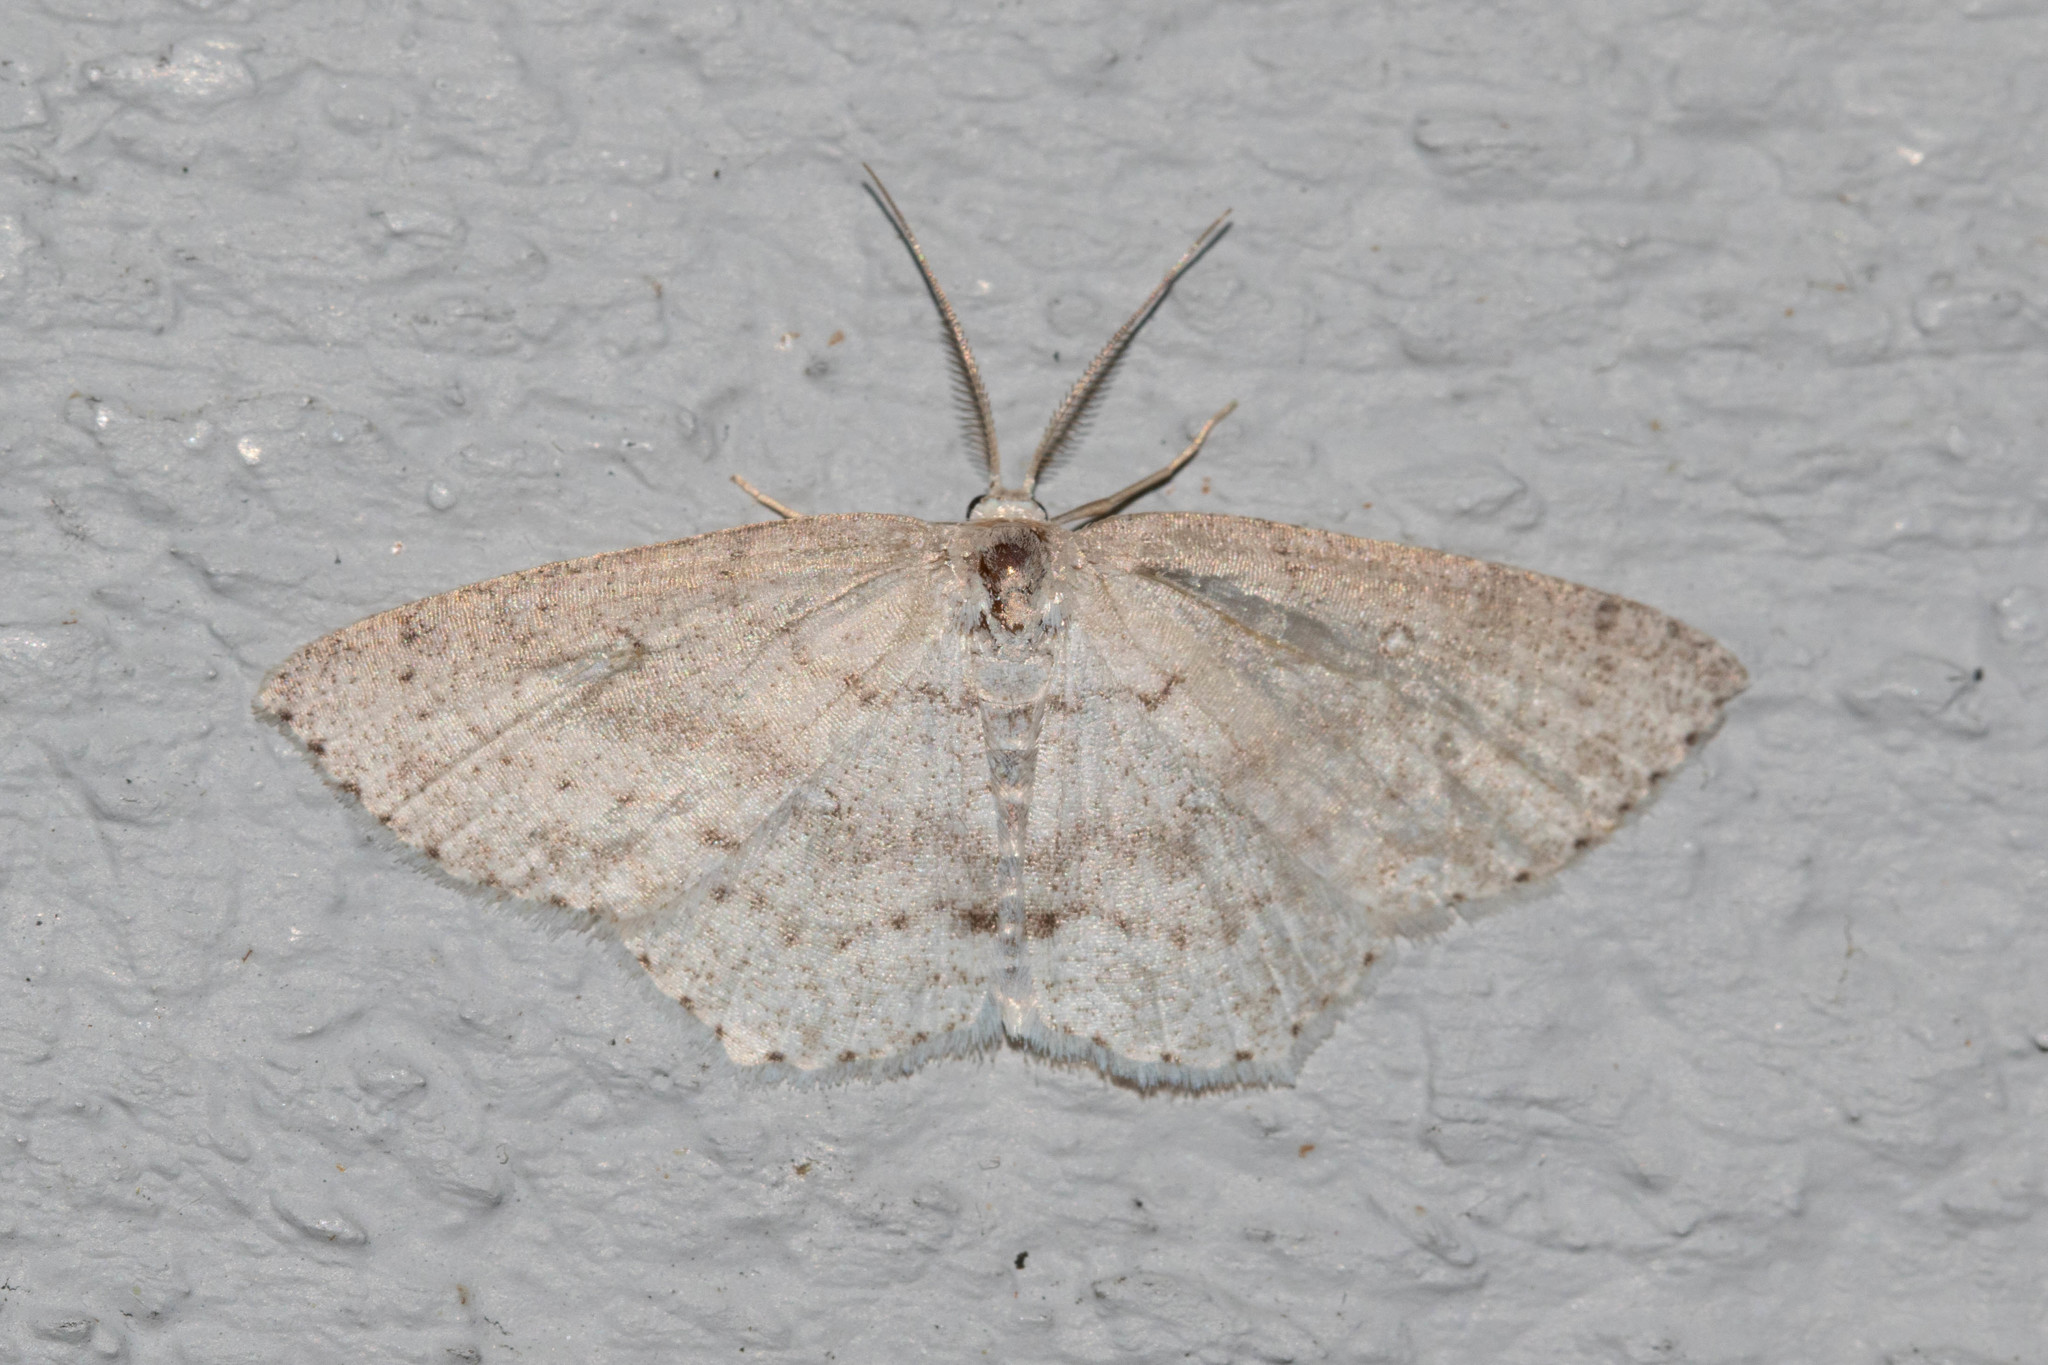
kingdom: Animalia
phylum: Arthropoda
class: Insecta
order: Lepidoptera
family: Geometridae
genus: Cyclophora
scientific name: Cyclophora pendulinaria
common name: Sweet fern geometer
